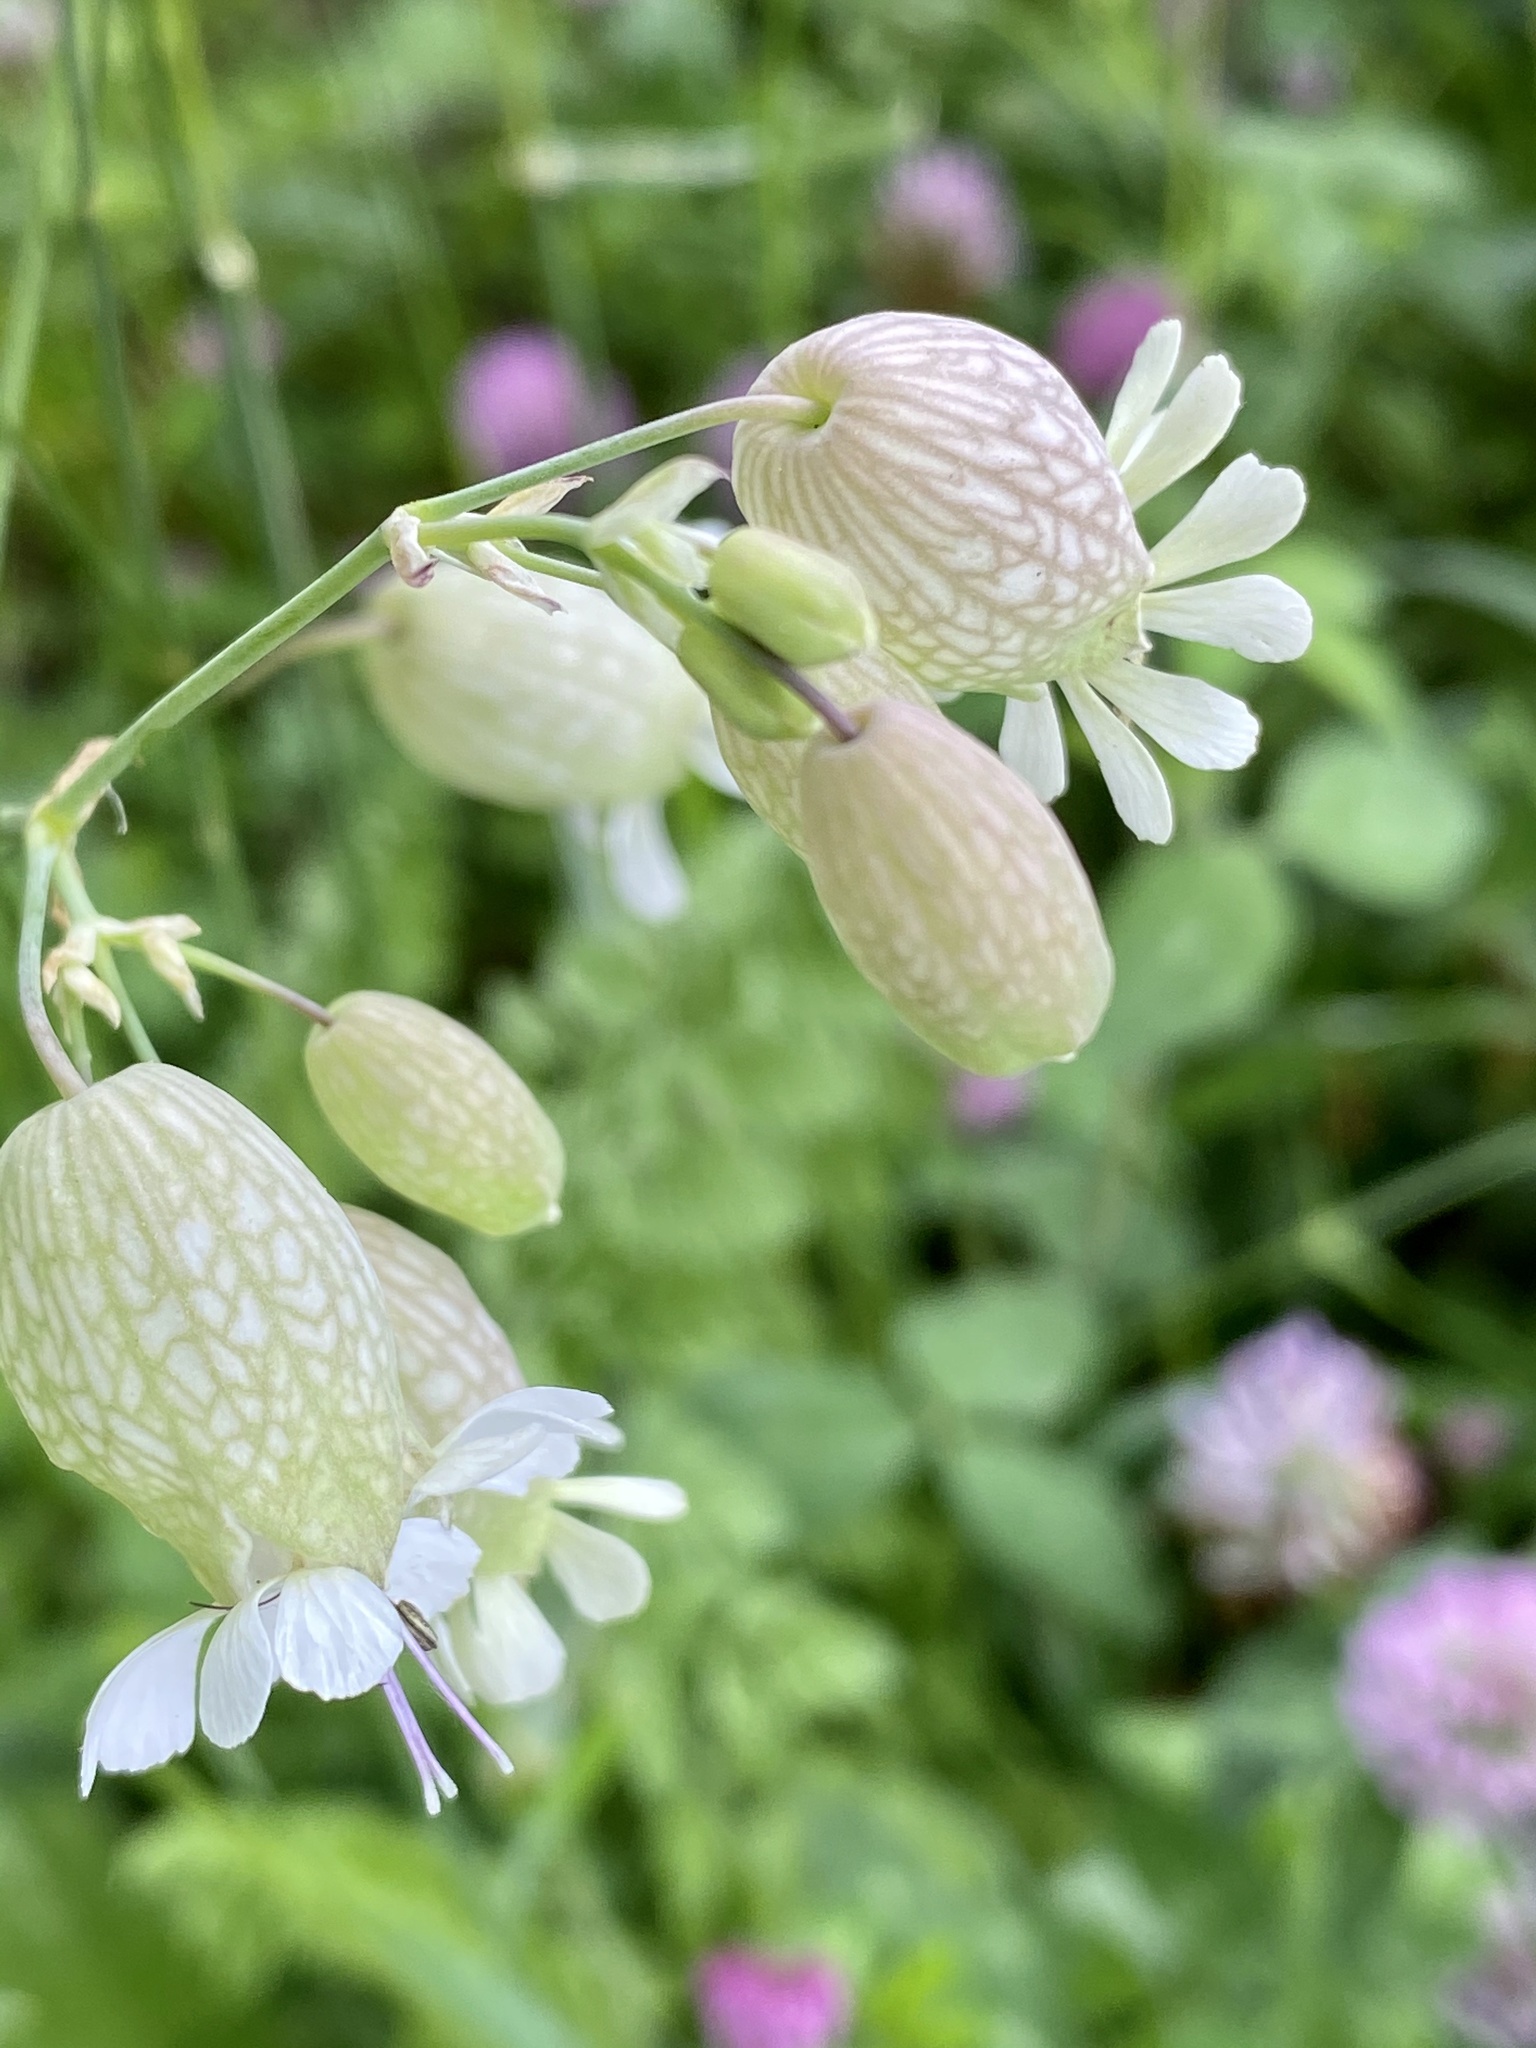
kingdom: Plantae
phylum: Tracheophyta
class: Magnoliopsida
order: Caryophyllales
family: Caryophyllaceae
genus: Silene
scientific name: Silene vulgaris
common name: Bladder campion
